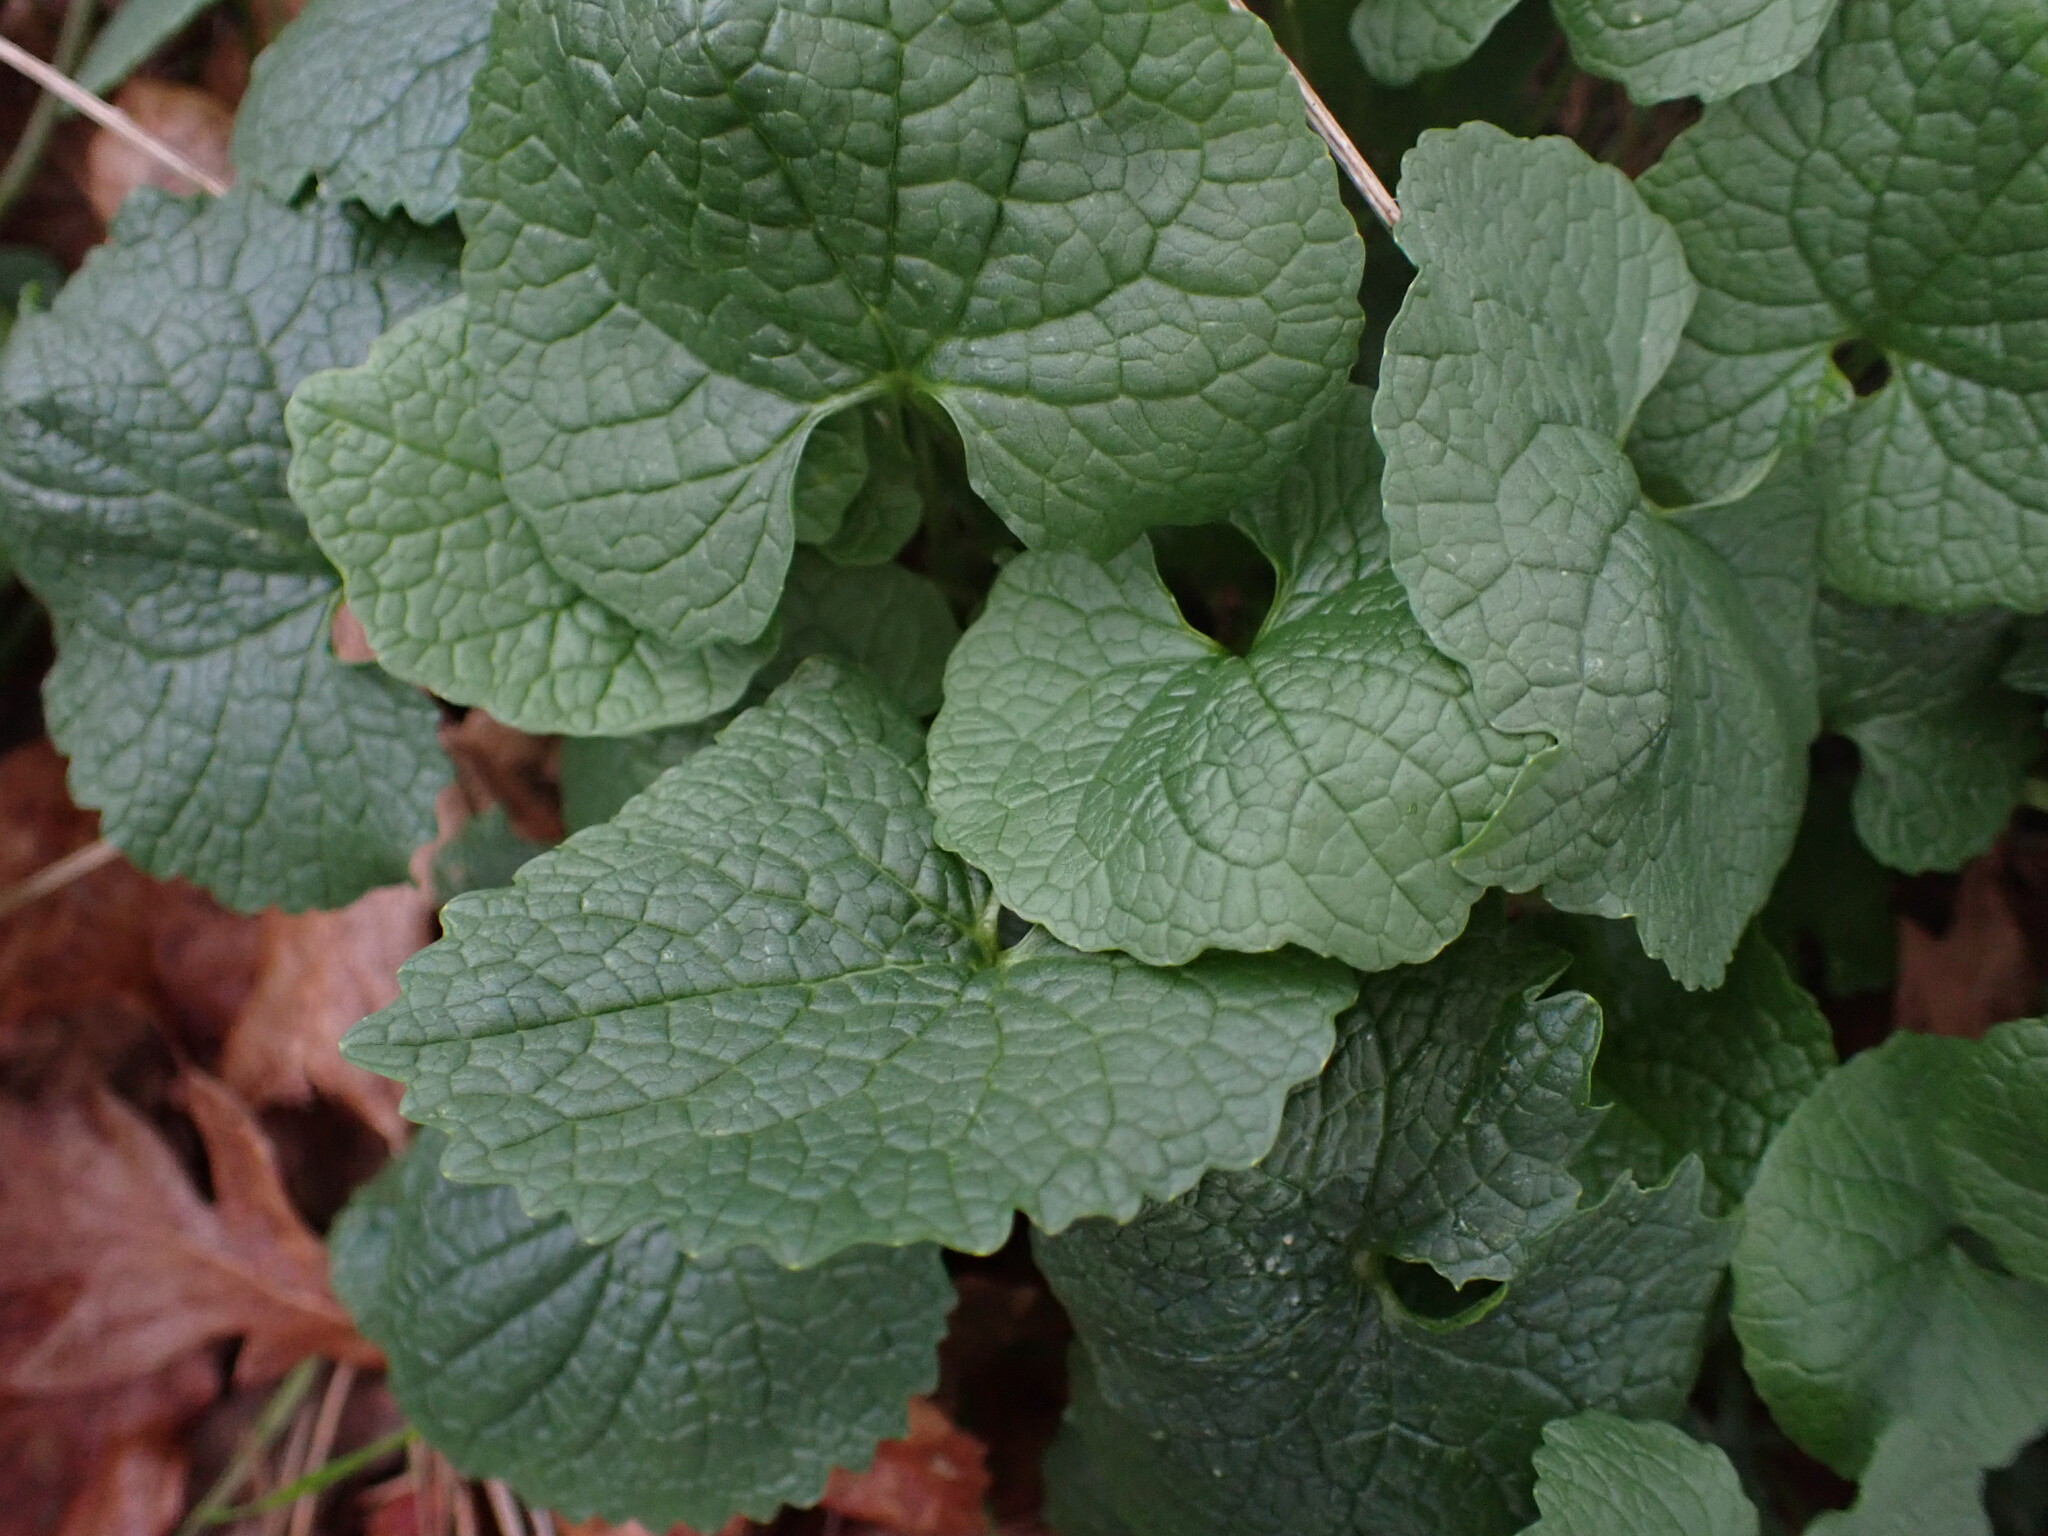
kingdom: Plantae
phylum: Tracheophyta
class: Magnoliopsida
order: Brassicales
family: Brassicaceae
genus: Alliaria
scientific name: Alliaria petiolata
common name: Garlic mustard
